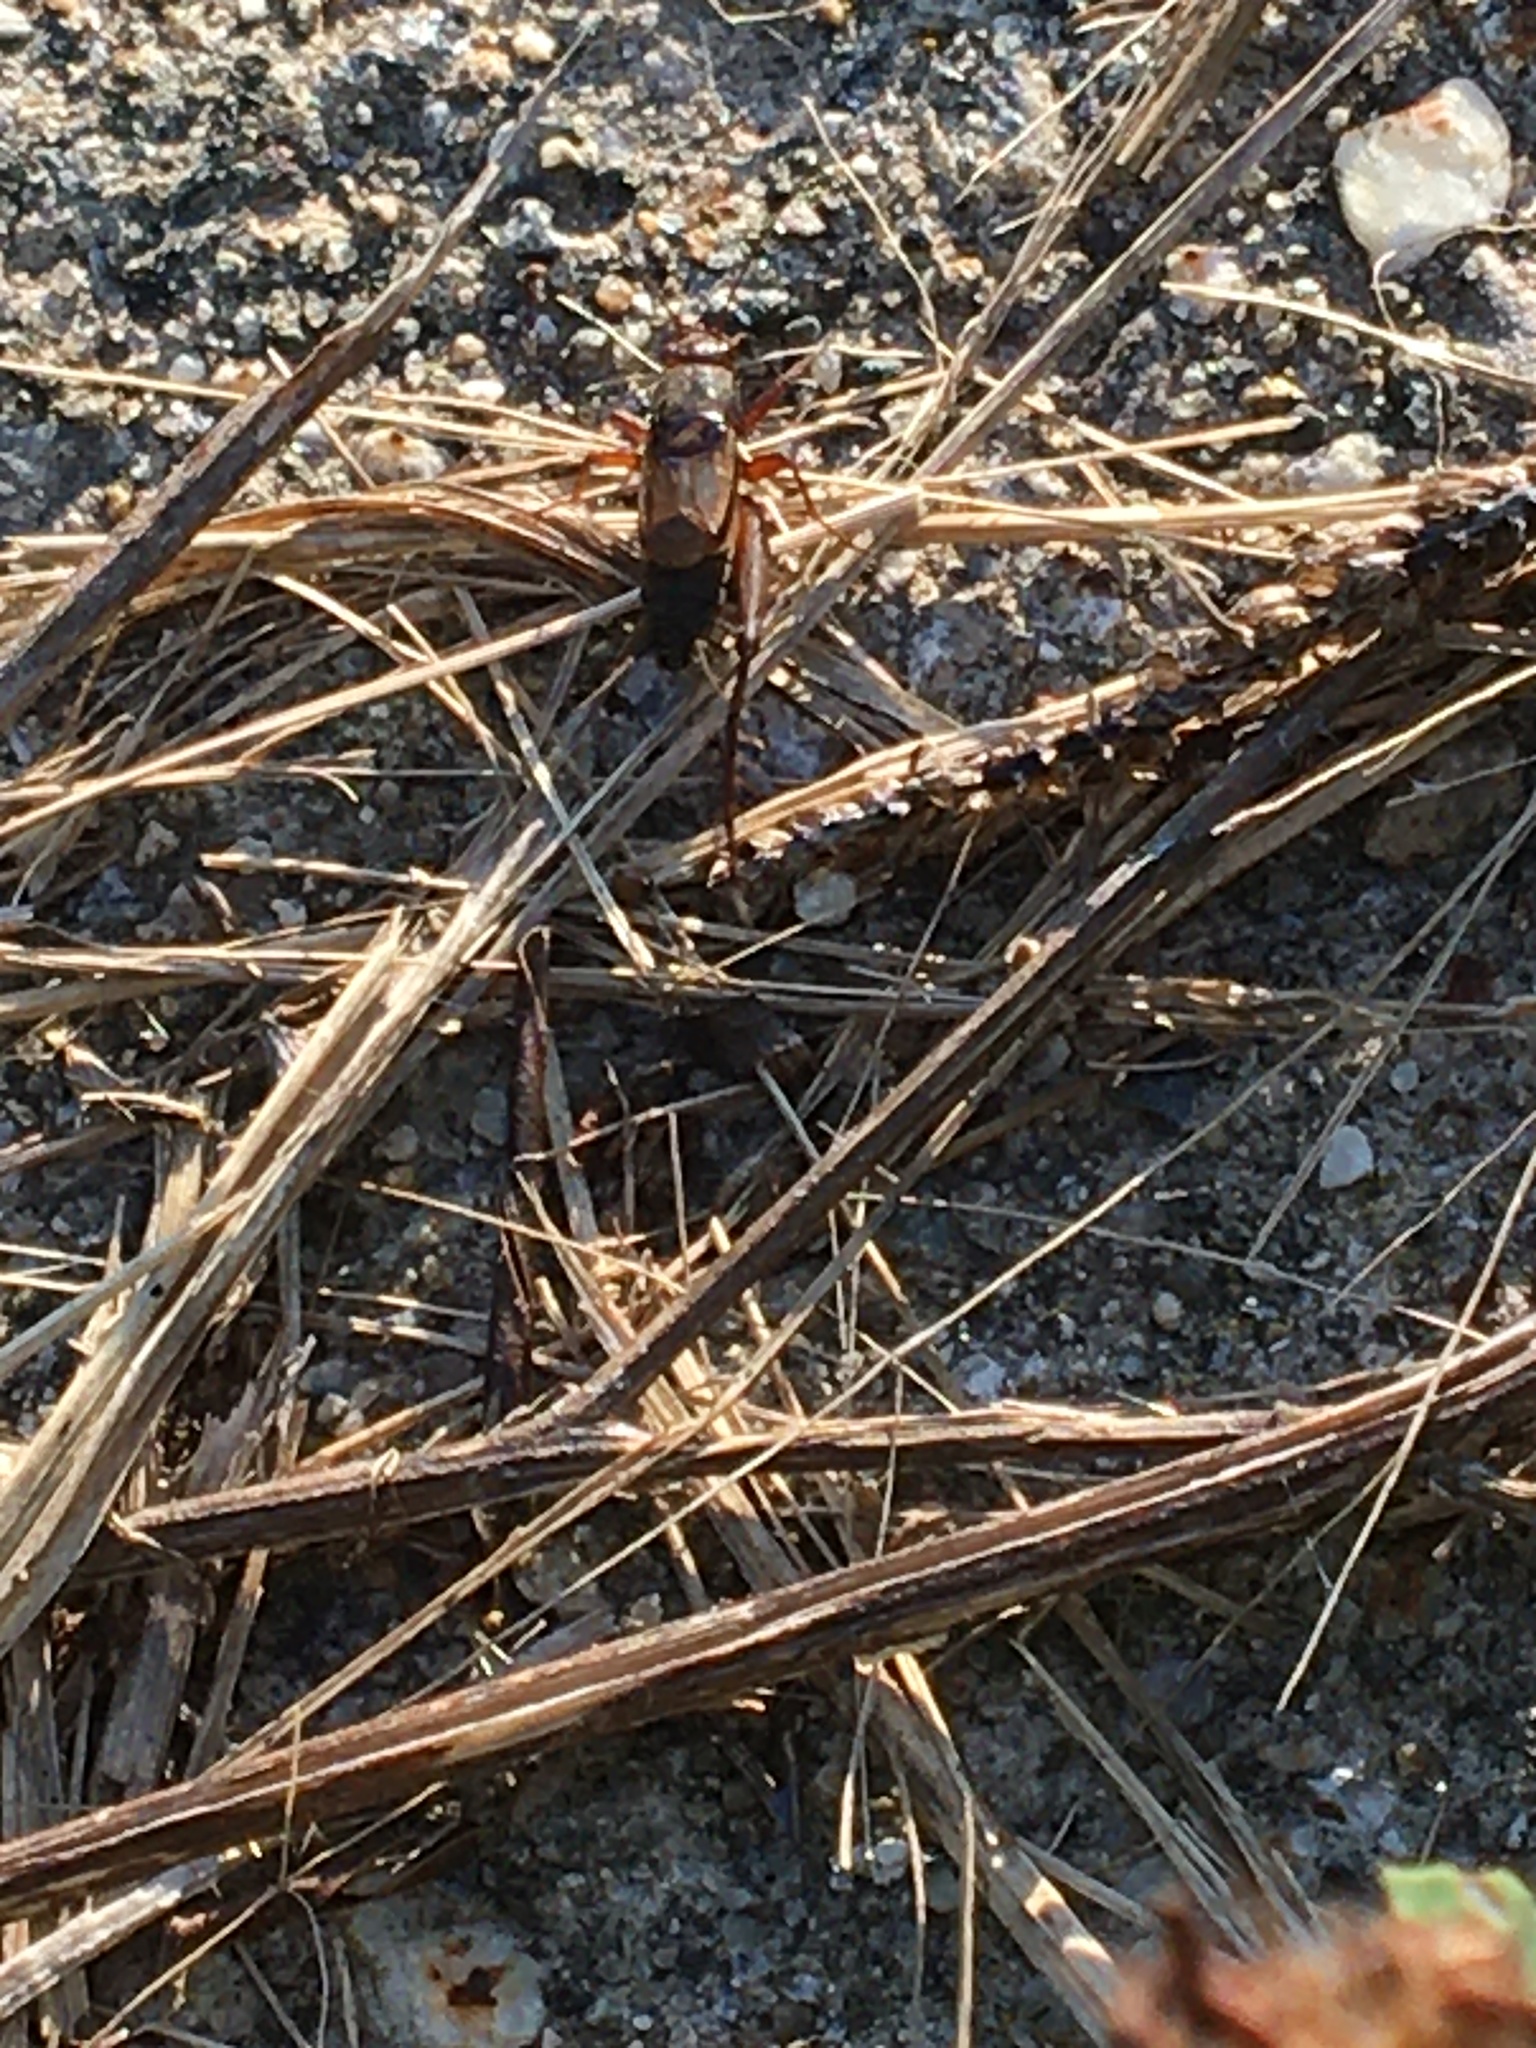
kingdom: Animalia
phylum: Arthropoda
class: Insecta
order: Orthoptera
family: Trigonidiidae
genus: Allonemobius
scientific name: Allonemobius
